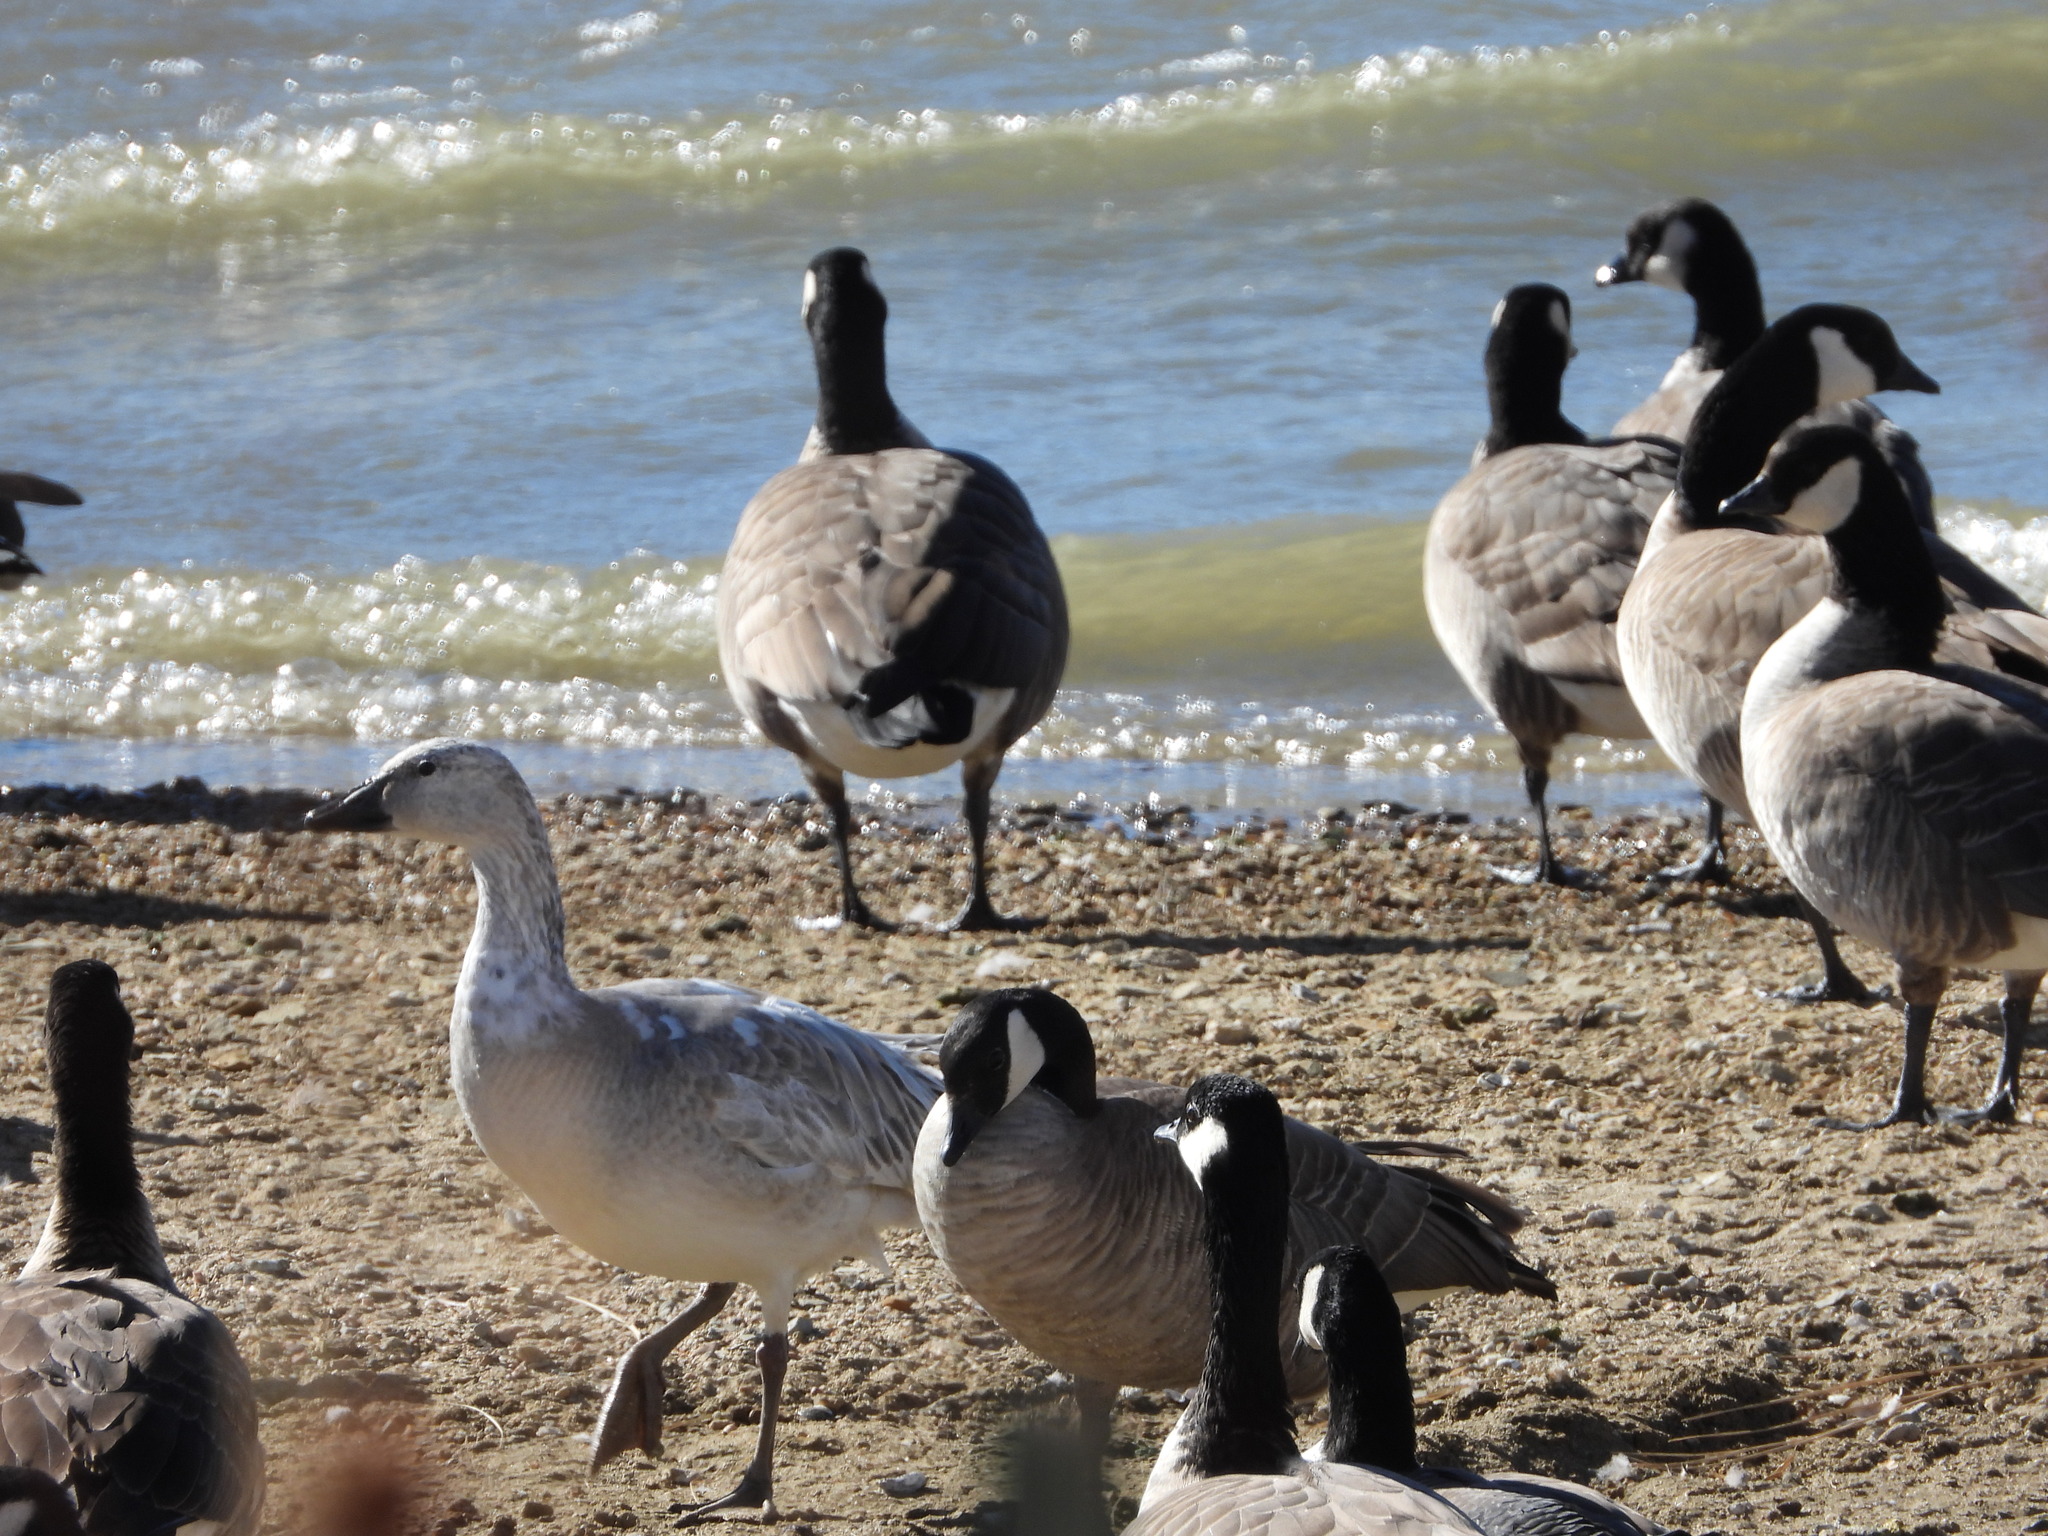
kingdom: Animalia
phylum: Chordata
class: Aves
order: Anseriformes
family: Anatidae
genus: Anser
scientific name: Anser caerulescens
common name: Snow goose
